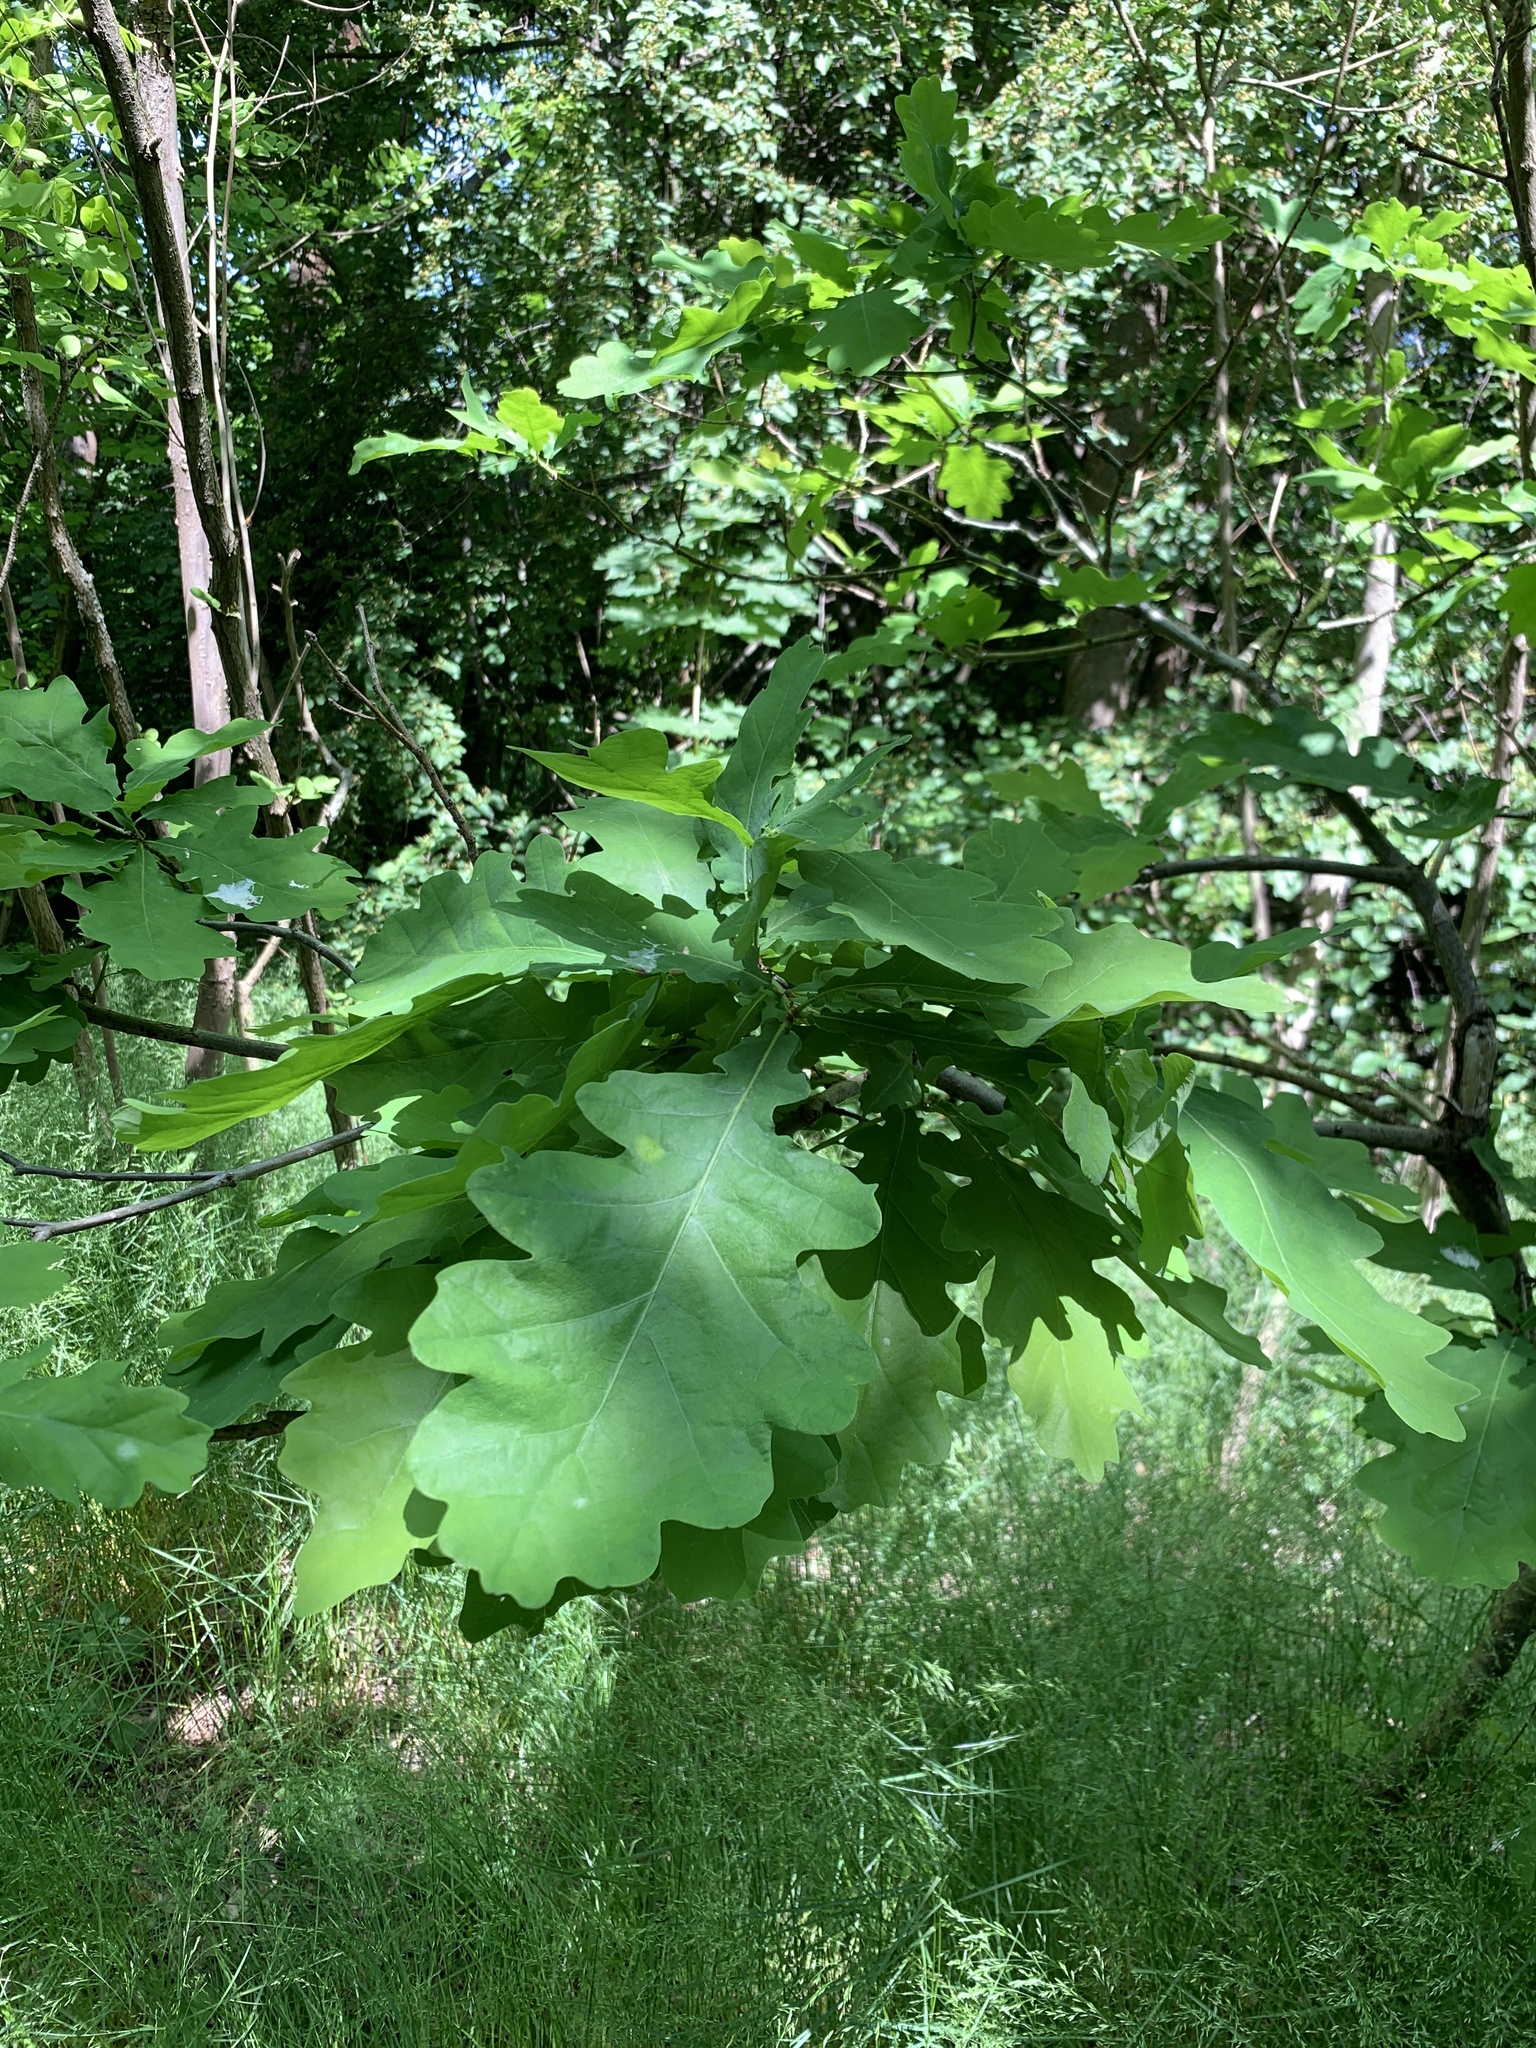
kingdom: Plantae
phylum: Tracheophyta
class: Magnoliopsida
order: Fagales
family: Fagaceae
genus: Quercus
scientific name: Quercus robur
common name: Pedunculate oak
